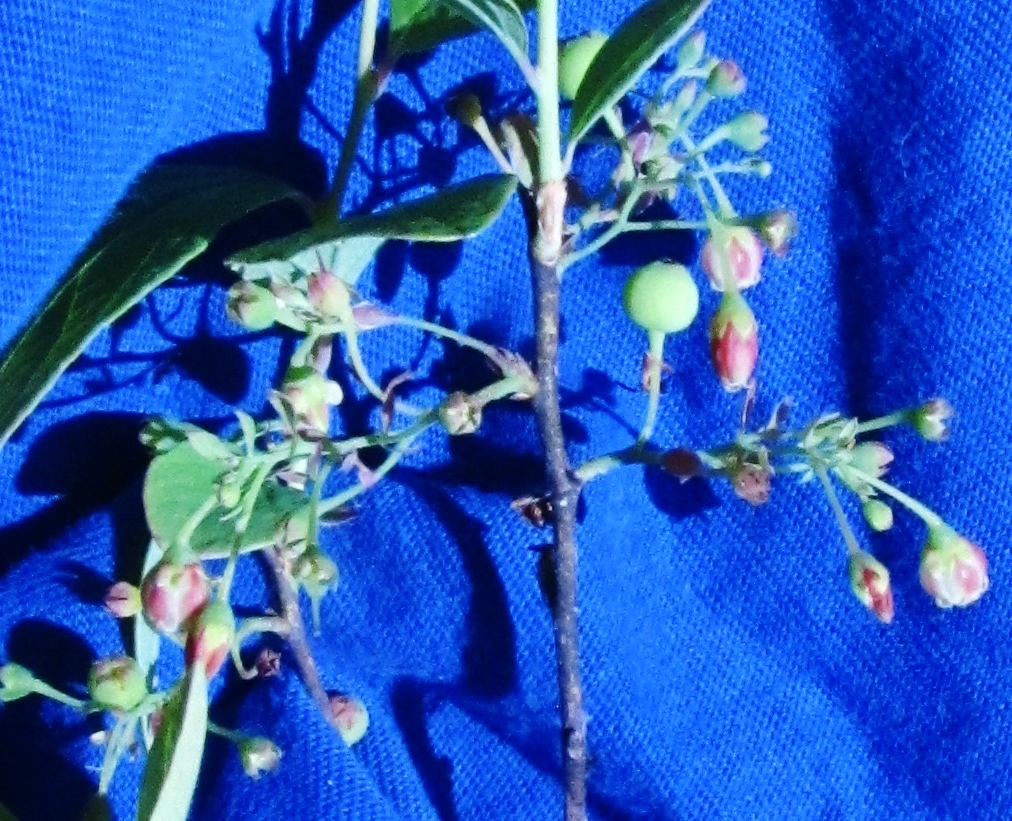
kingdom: Plantae
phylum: Tracheophyta
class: Magnoliopsida
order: Ericales
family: Ericaceae
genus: Gaylussacia
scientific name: Gaylussacia frondosa
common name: Dangleberry
